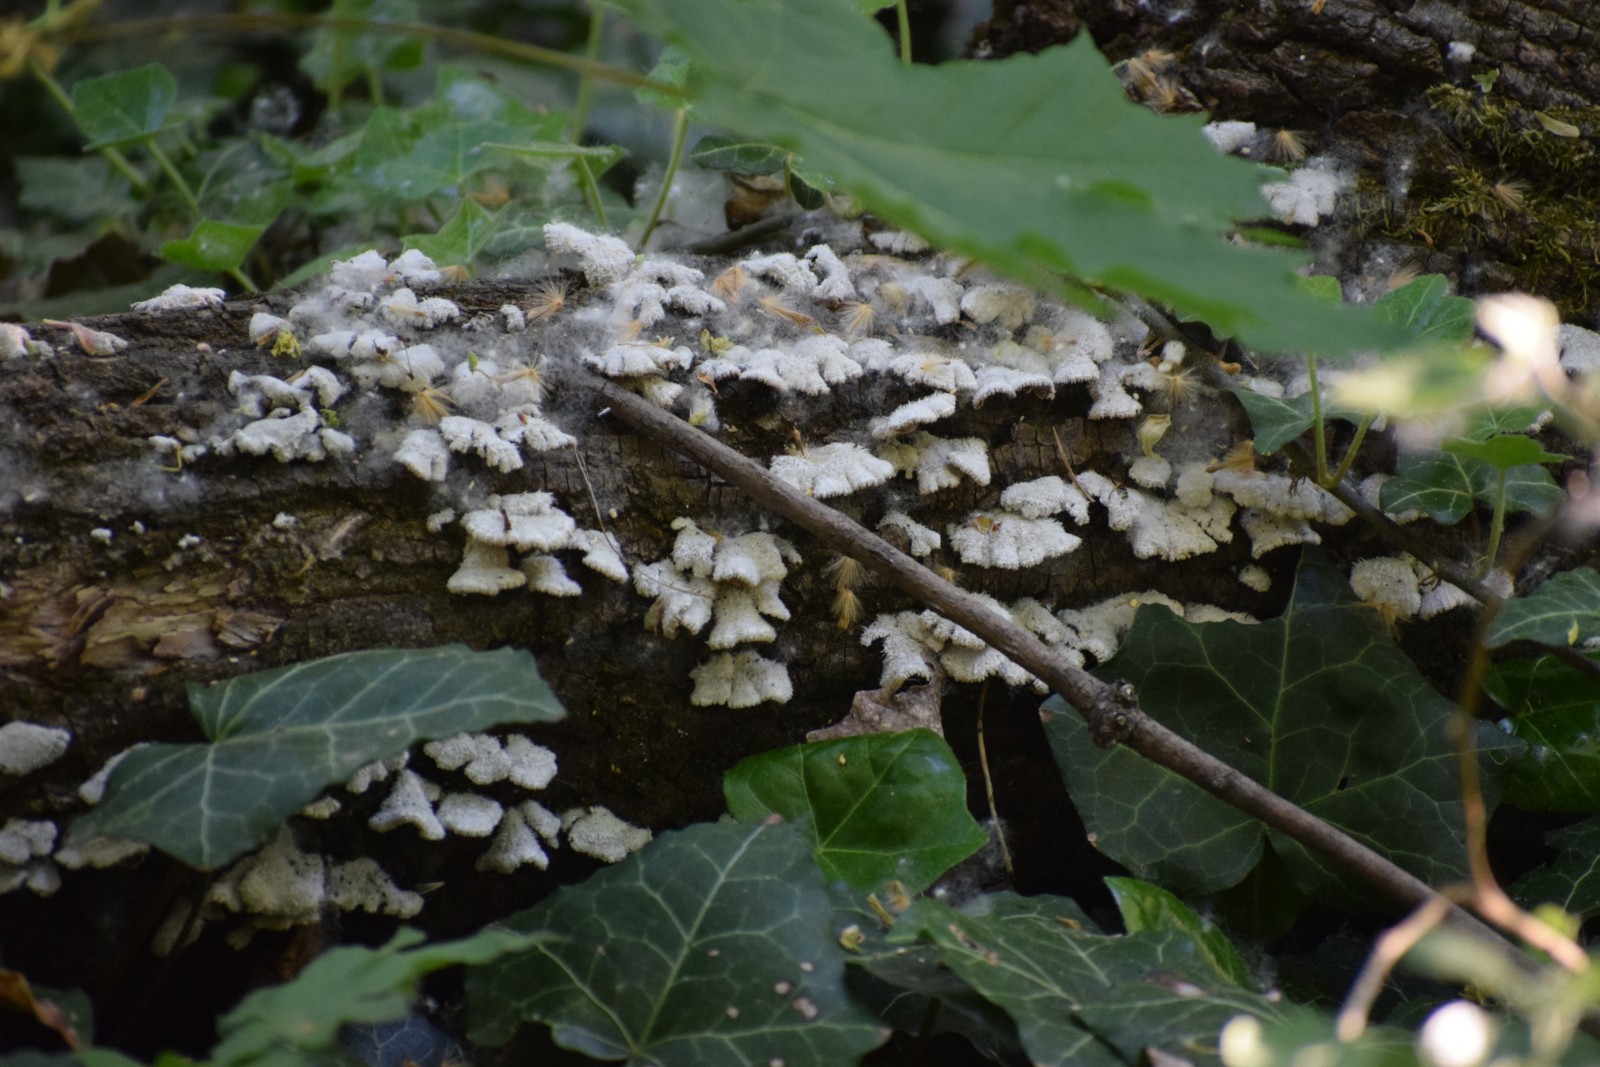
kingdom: Fungi
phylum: Basidiomycota
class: Agaricomycetes
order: Agaricales
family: Schizophyllaceae
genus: Schizophyllum
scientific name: Schizophyllum commune
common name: Common porecrust
